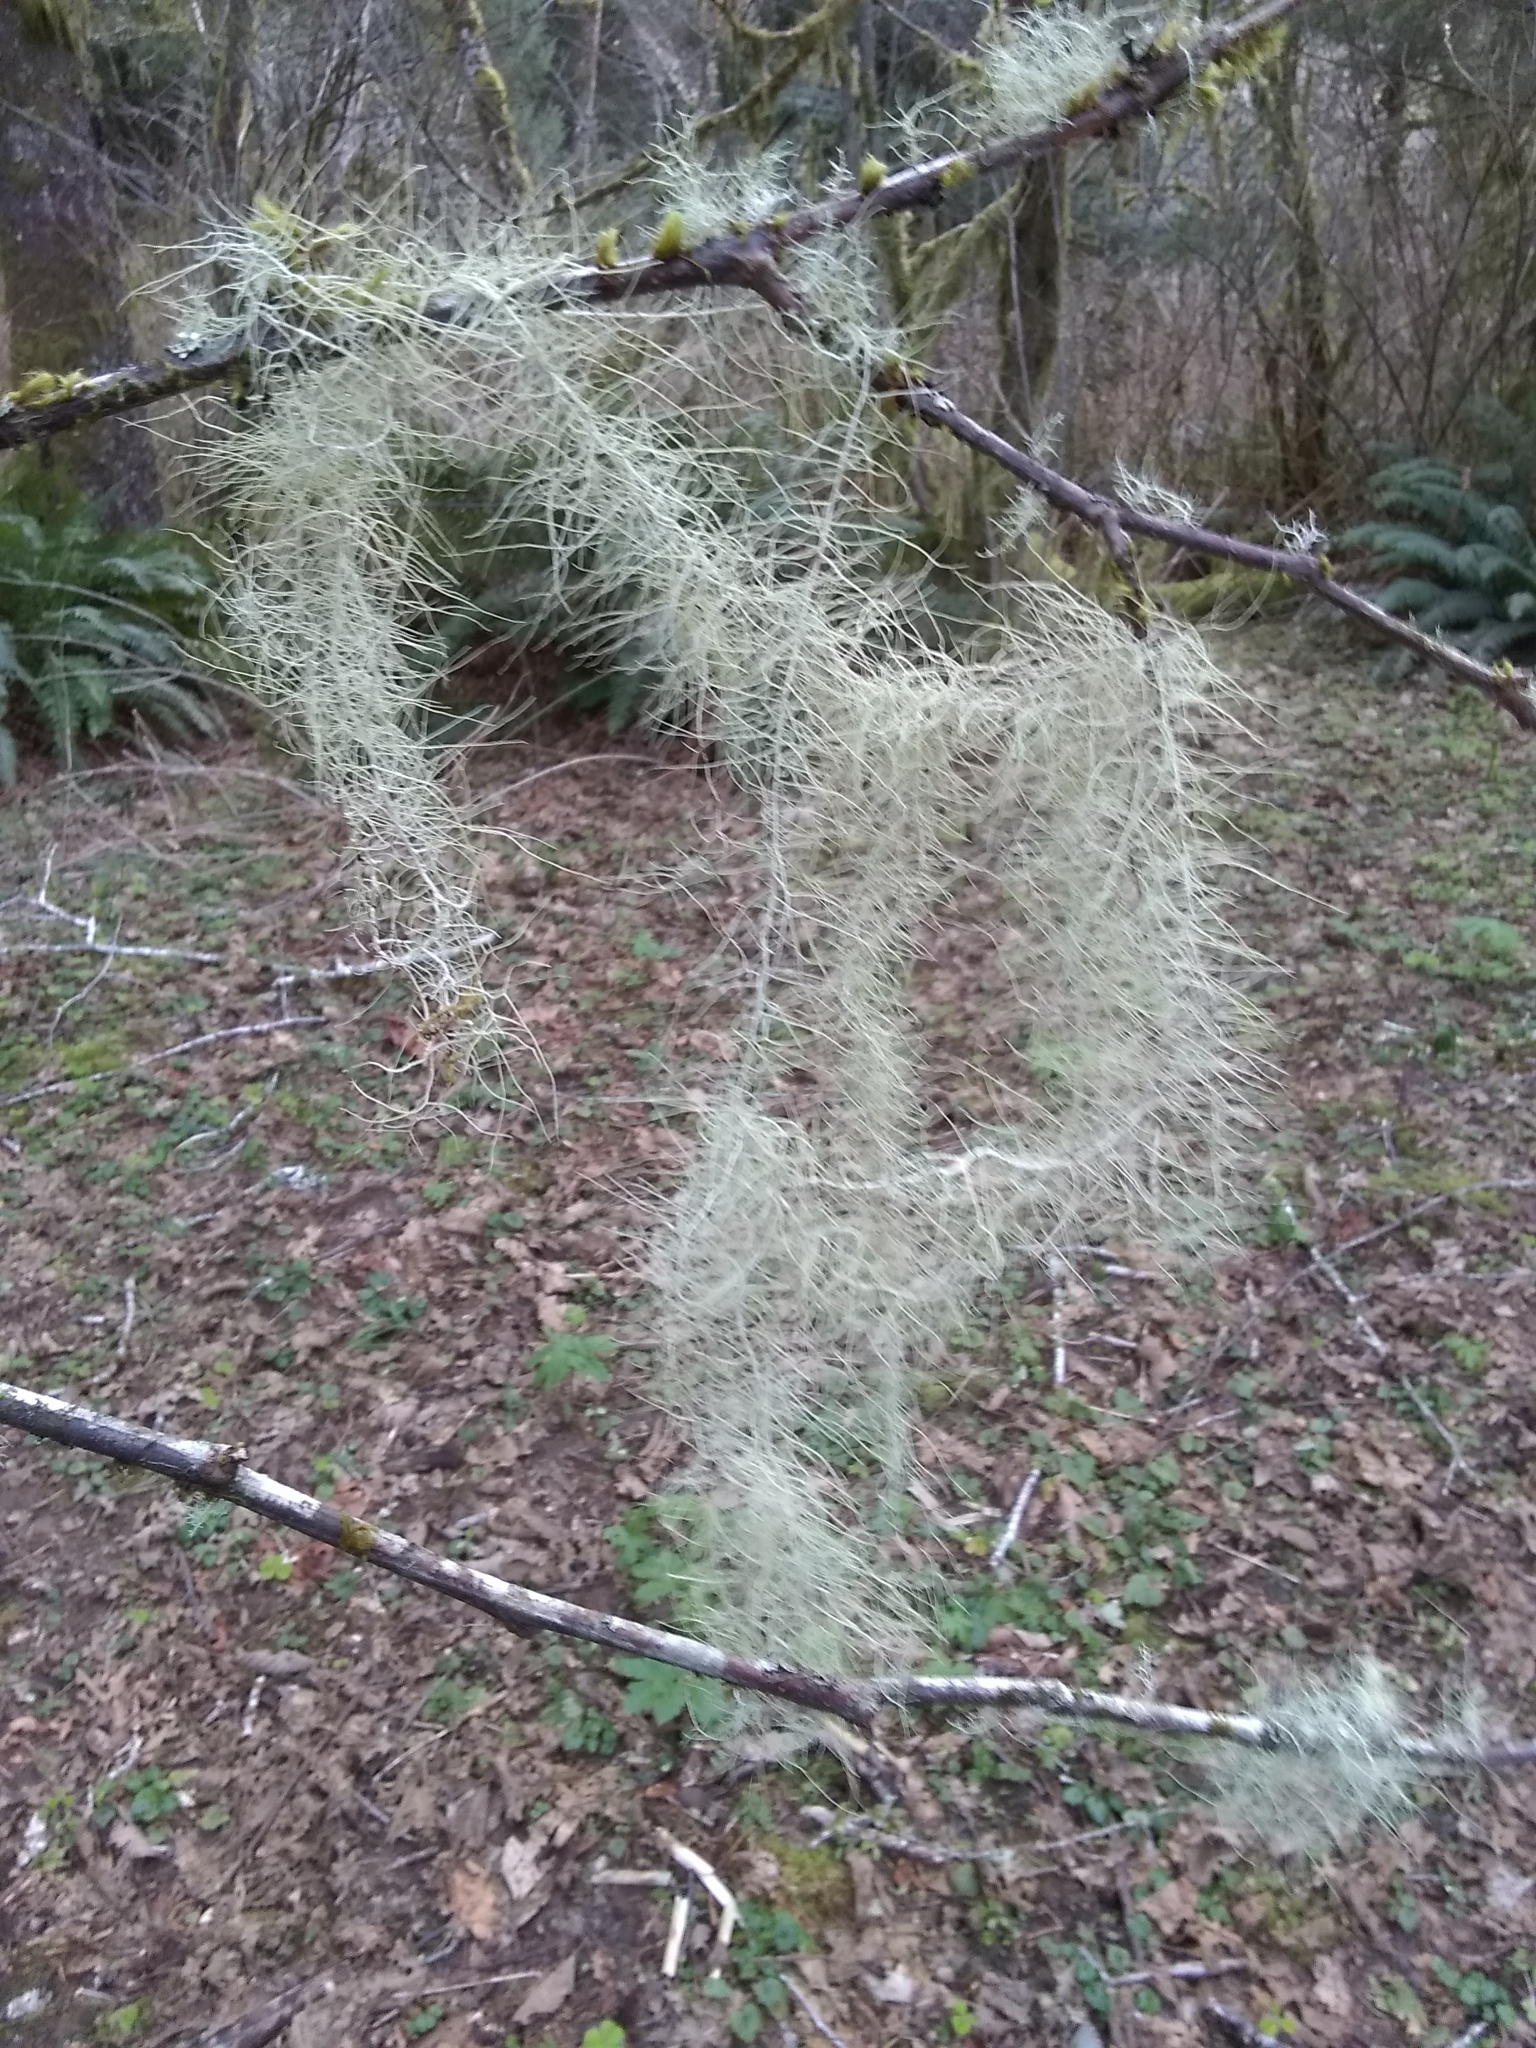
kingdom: Fungi
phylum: Ascomycota
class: Lecanoromycetes
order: Lecanorales
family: Parmeliaceae
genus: Dolichousnea
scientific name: Dolichousnea longissima
